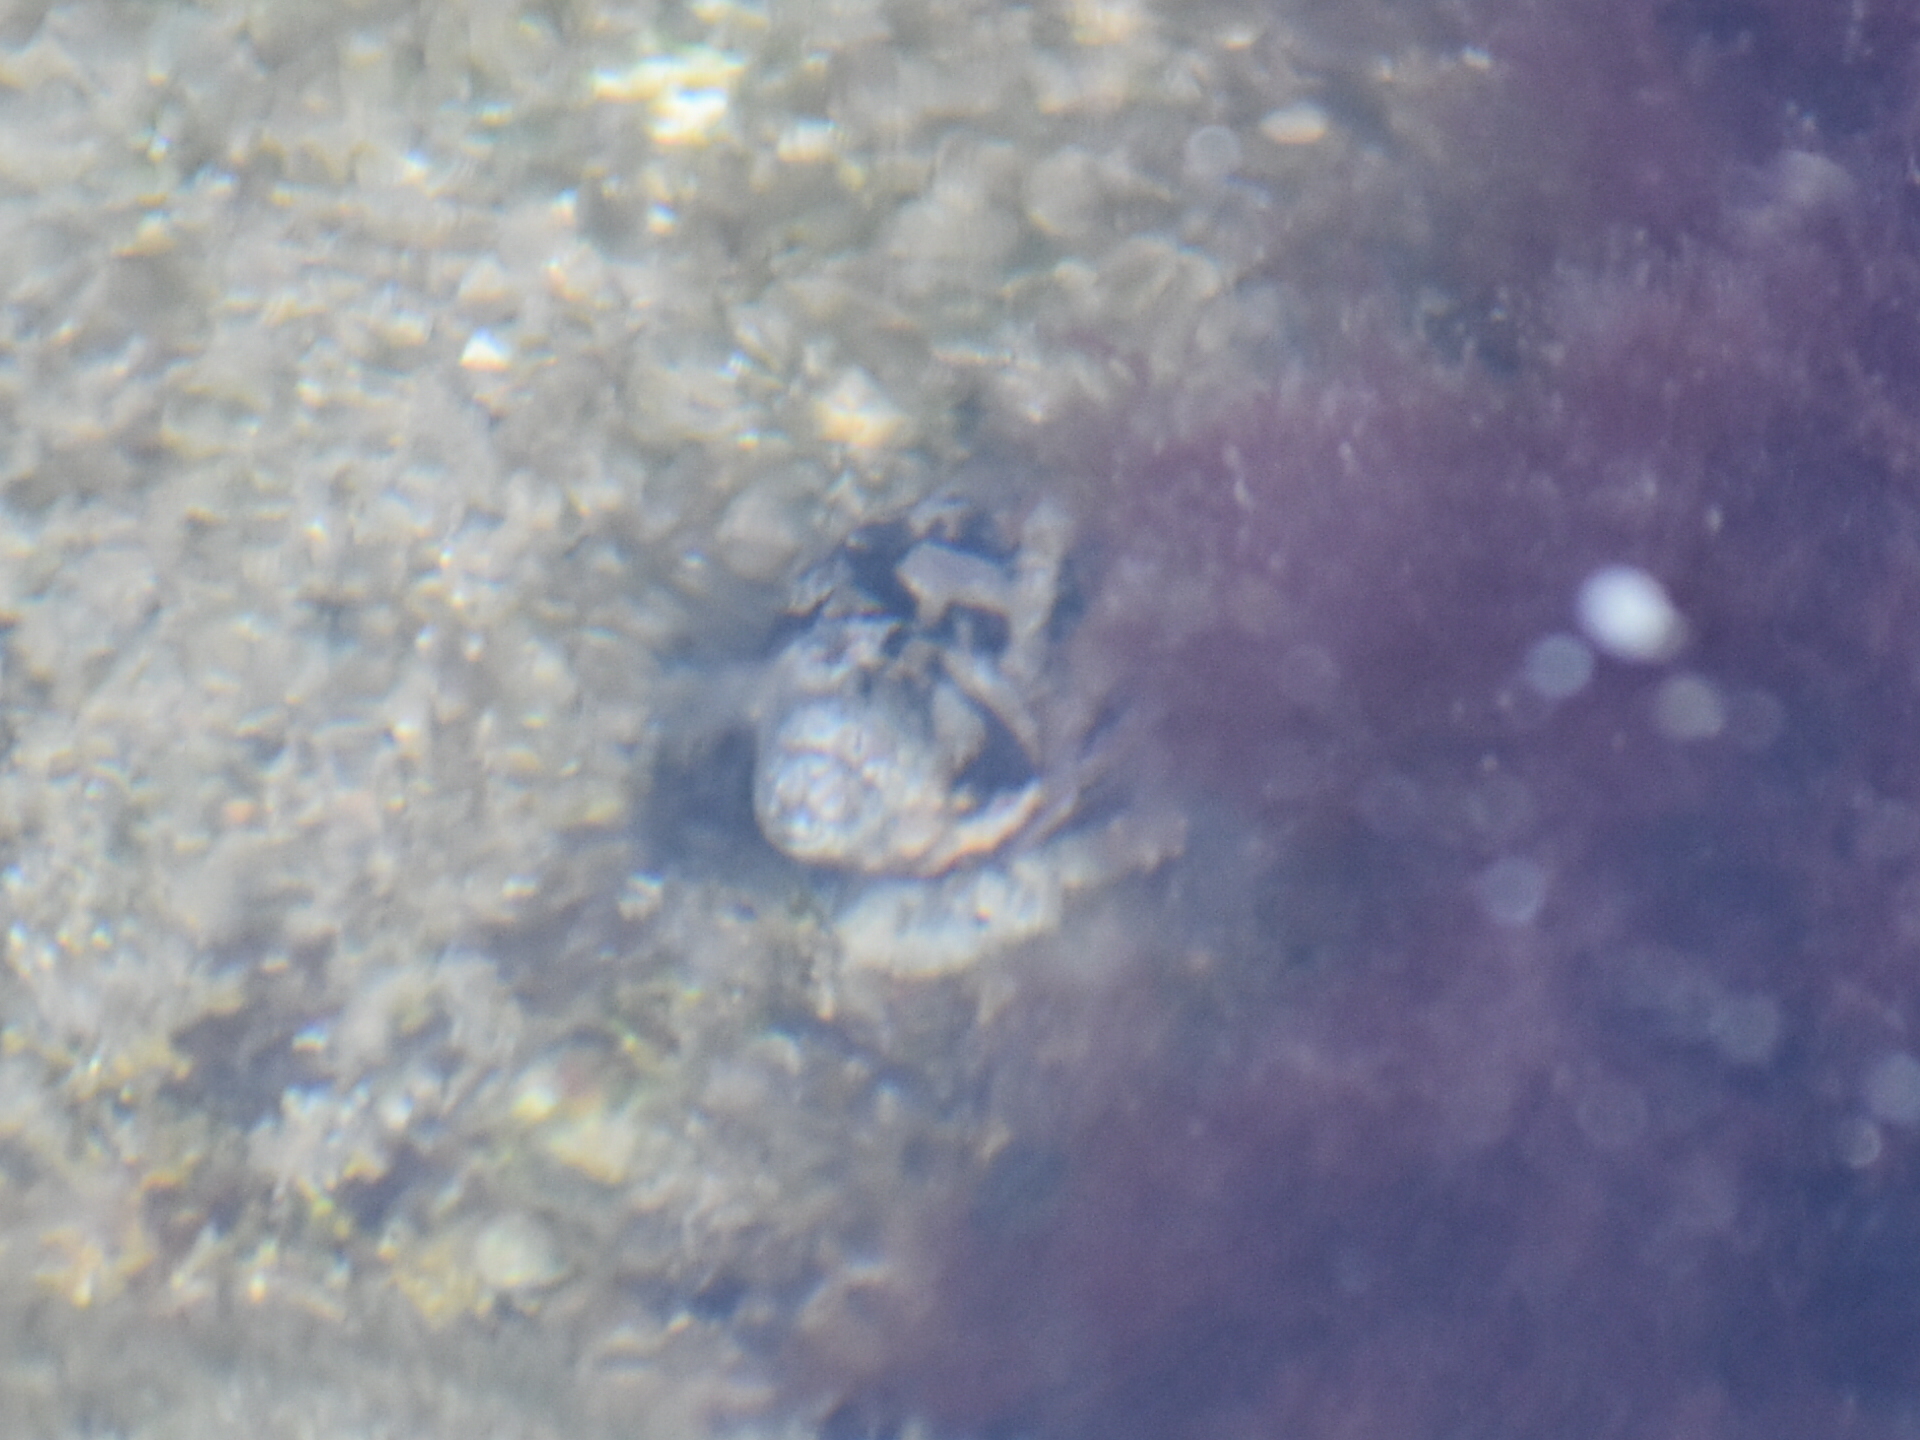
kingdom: Animalia
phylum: Mollusca
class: Gastropoda
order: Neogastropoda
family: Nassariidae
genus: Ilyanassa
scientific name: Ilyanassa obsoleta
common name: Eastern mudsnail
